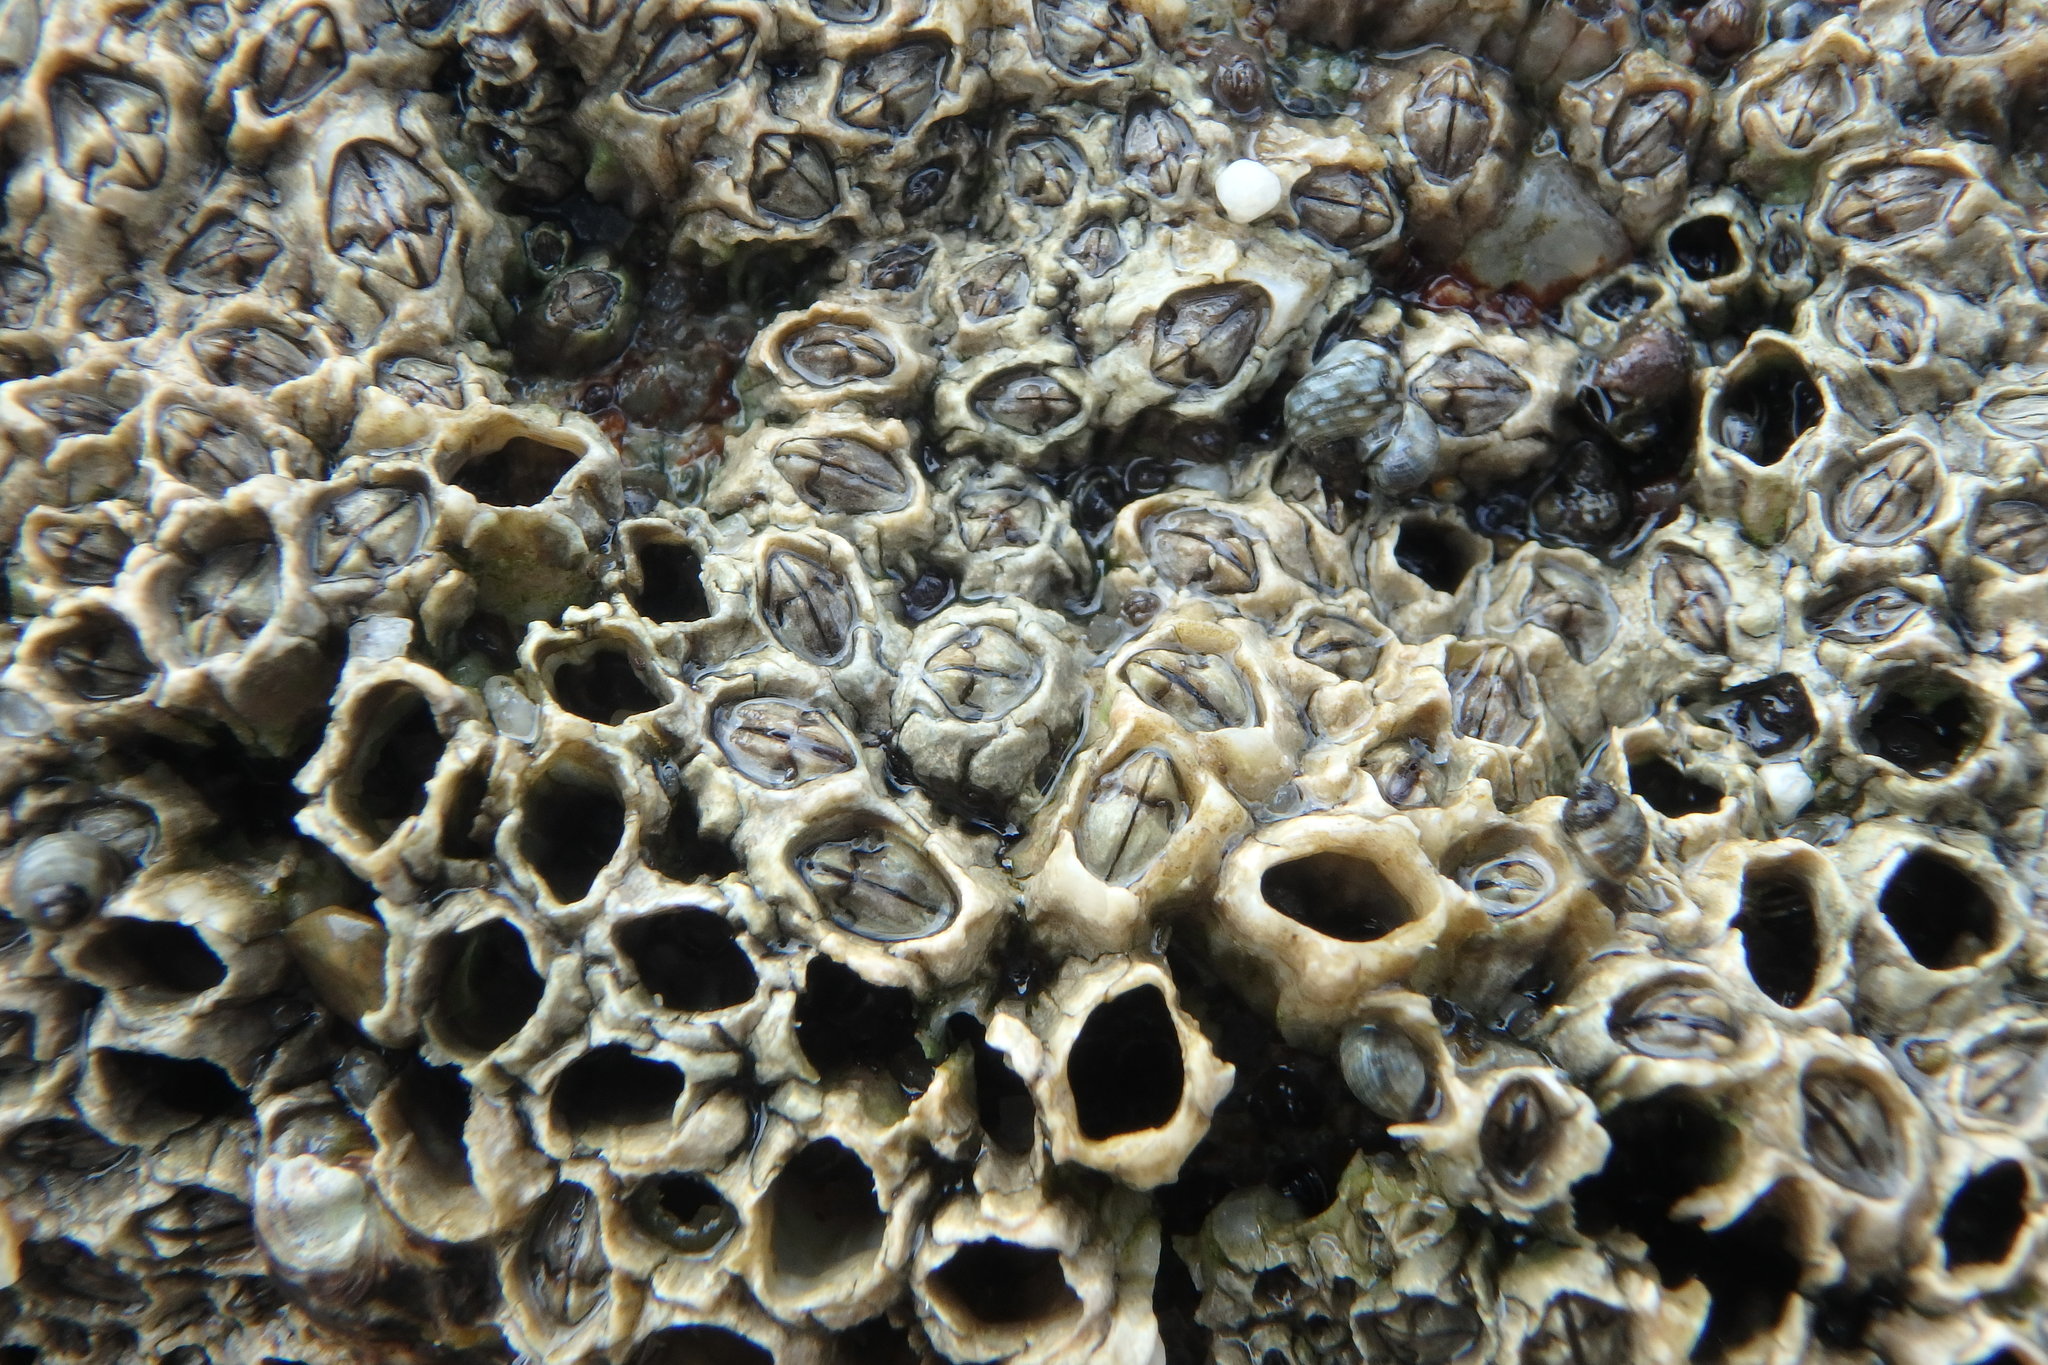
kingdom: Animalia
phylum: Arthropoda
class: Maxillopoda
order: Sessilia
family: Chthamalidae
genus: Chthamalus
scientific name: Chthamalus challengeri
